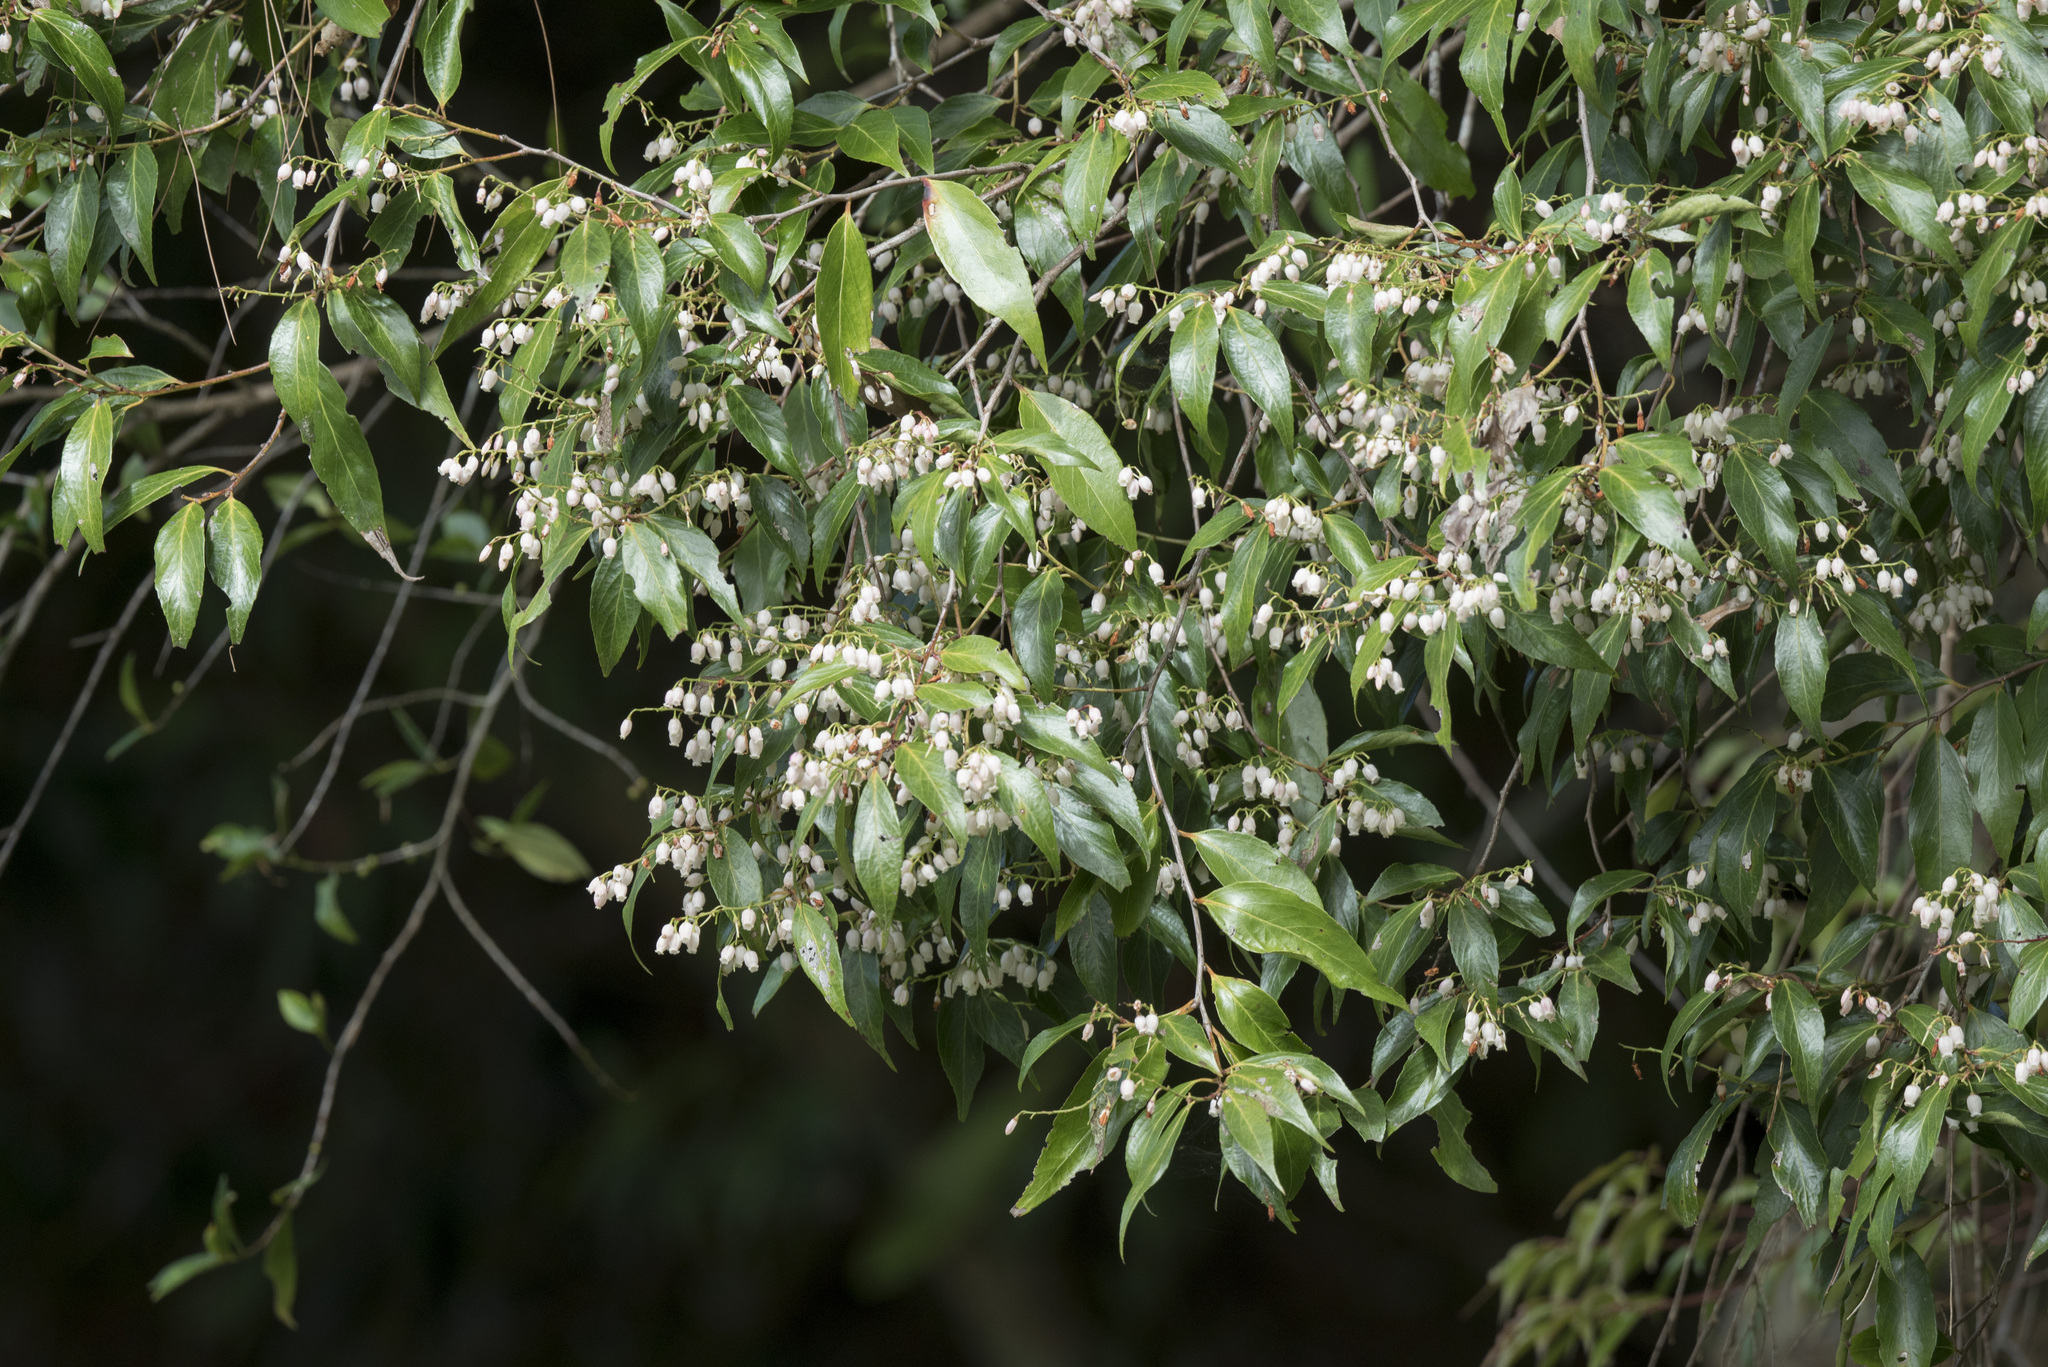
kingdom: Plantae
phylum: Tracheophyta
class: Magnoliopsida
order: Ericales
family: Ericaceae
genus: Vaccinium
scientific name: Vaccinium randaiensis
